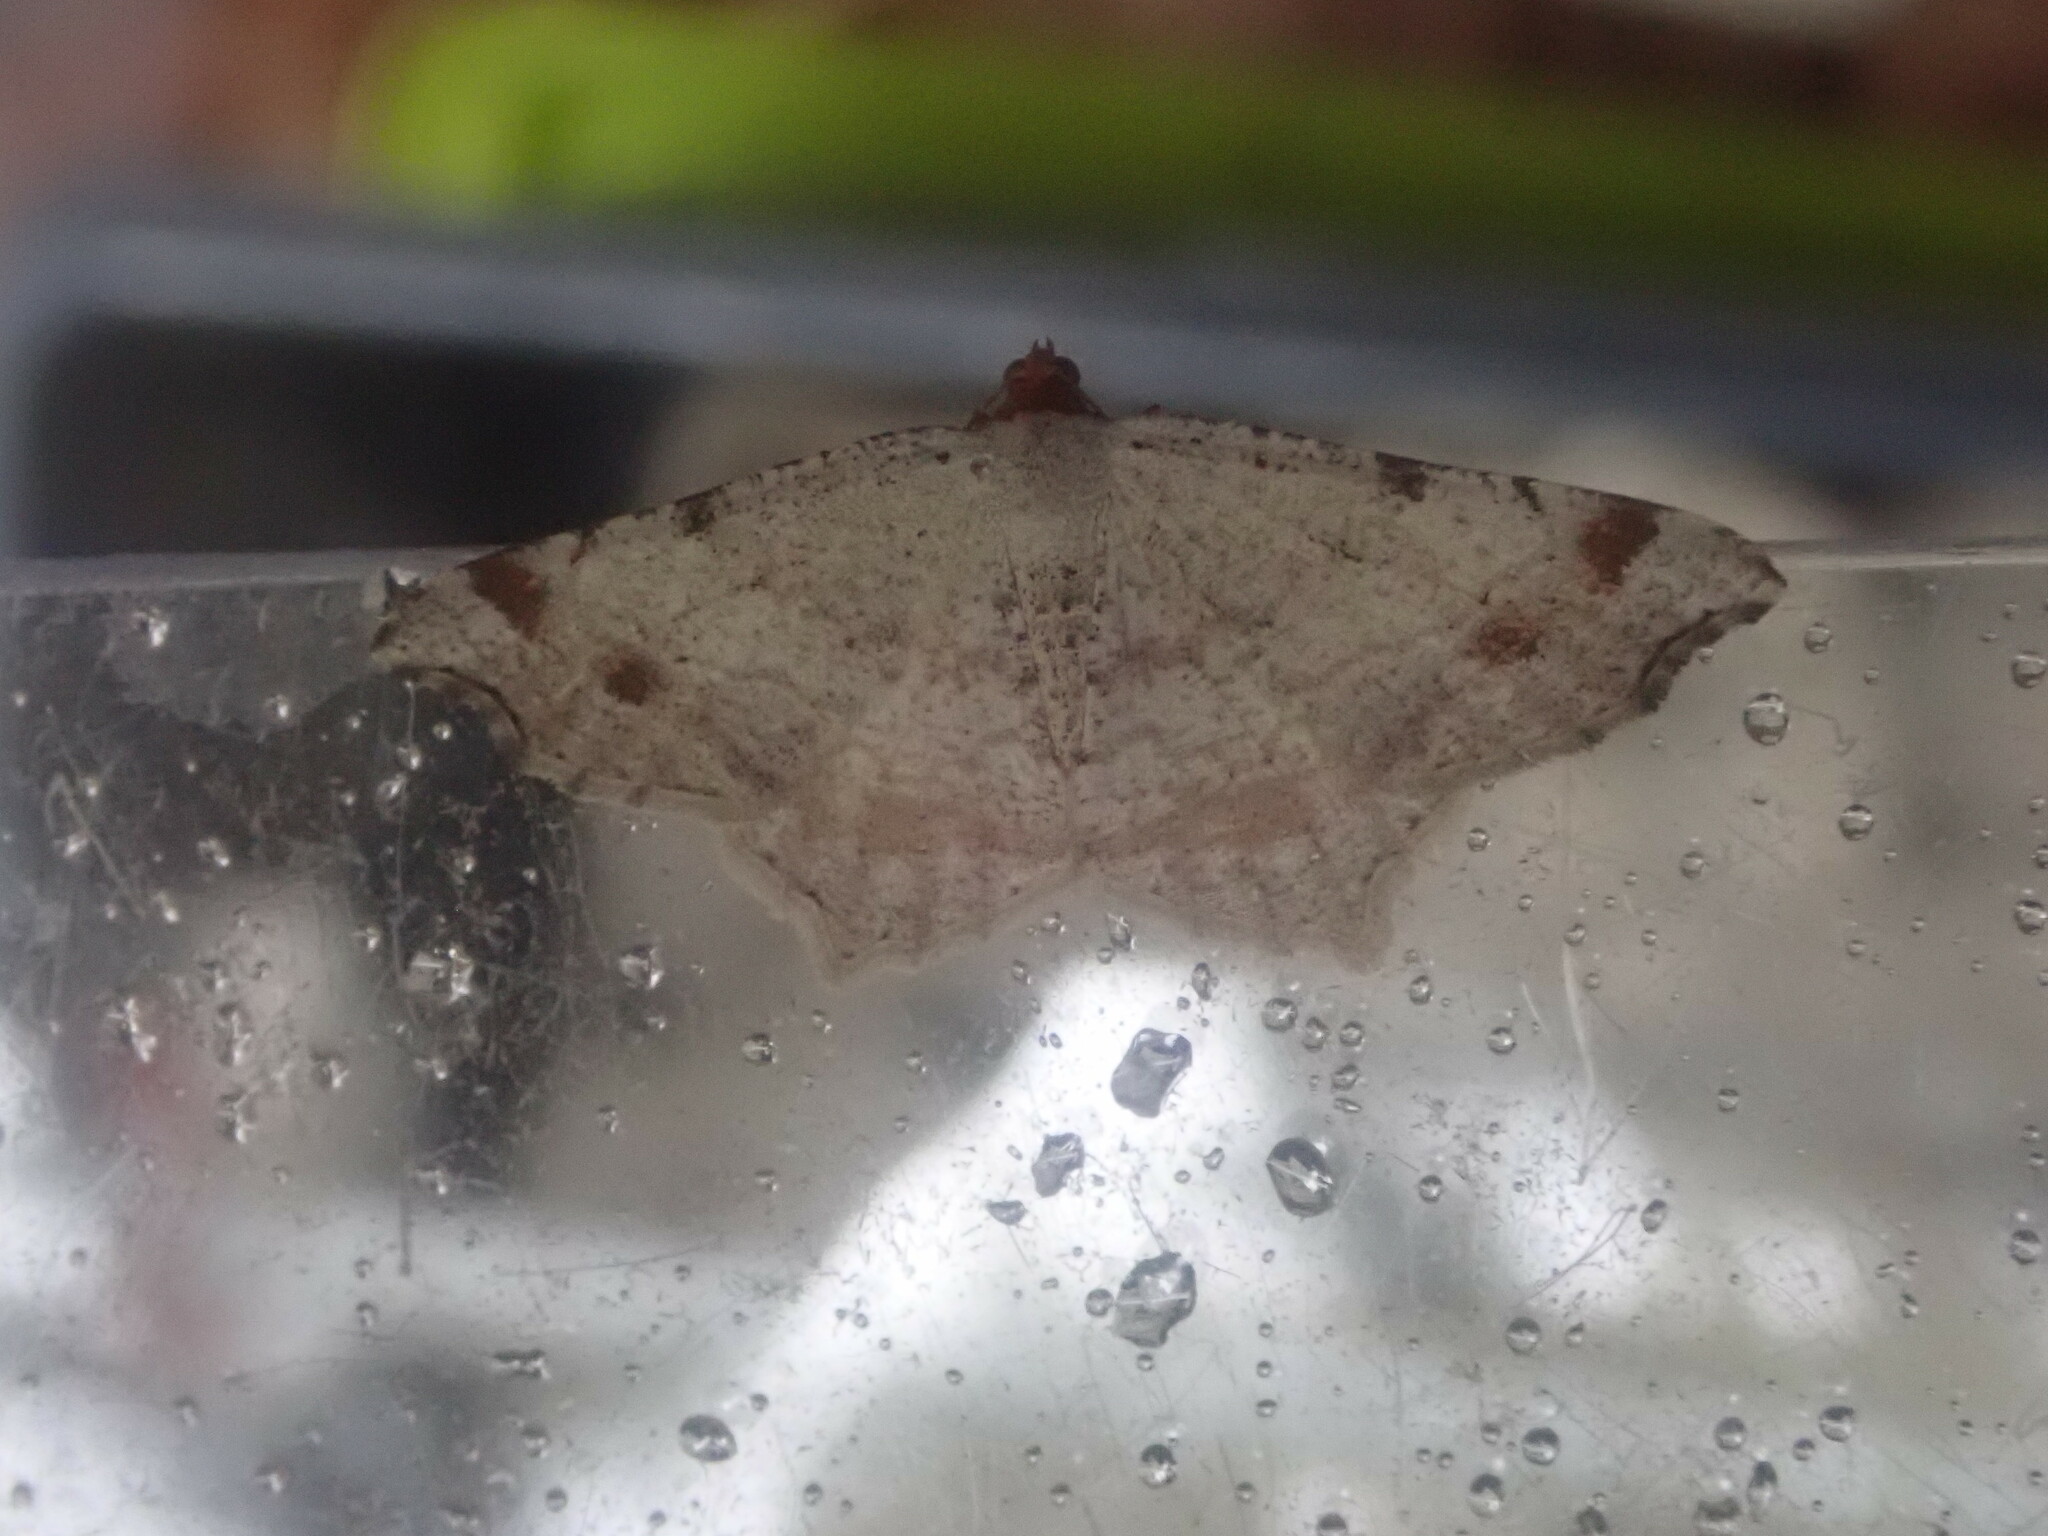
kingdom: Animalia
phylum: Arthropoda
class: Insecta
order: Lepidoptera
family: Geometridae
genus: Macaria
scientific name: Macaria bisignata
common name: Red-headed inchworm
